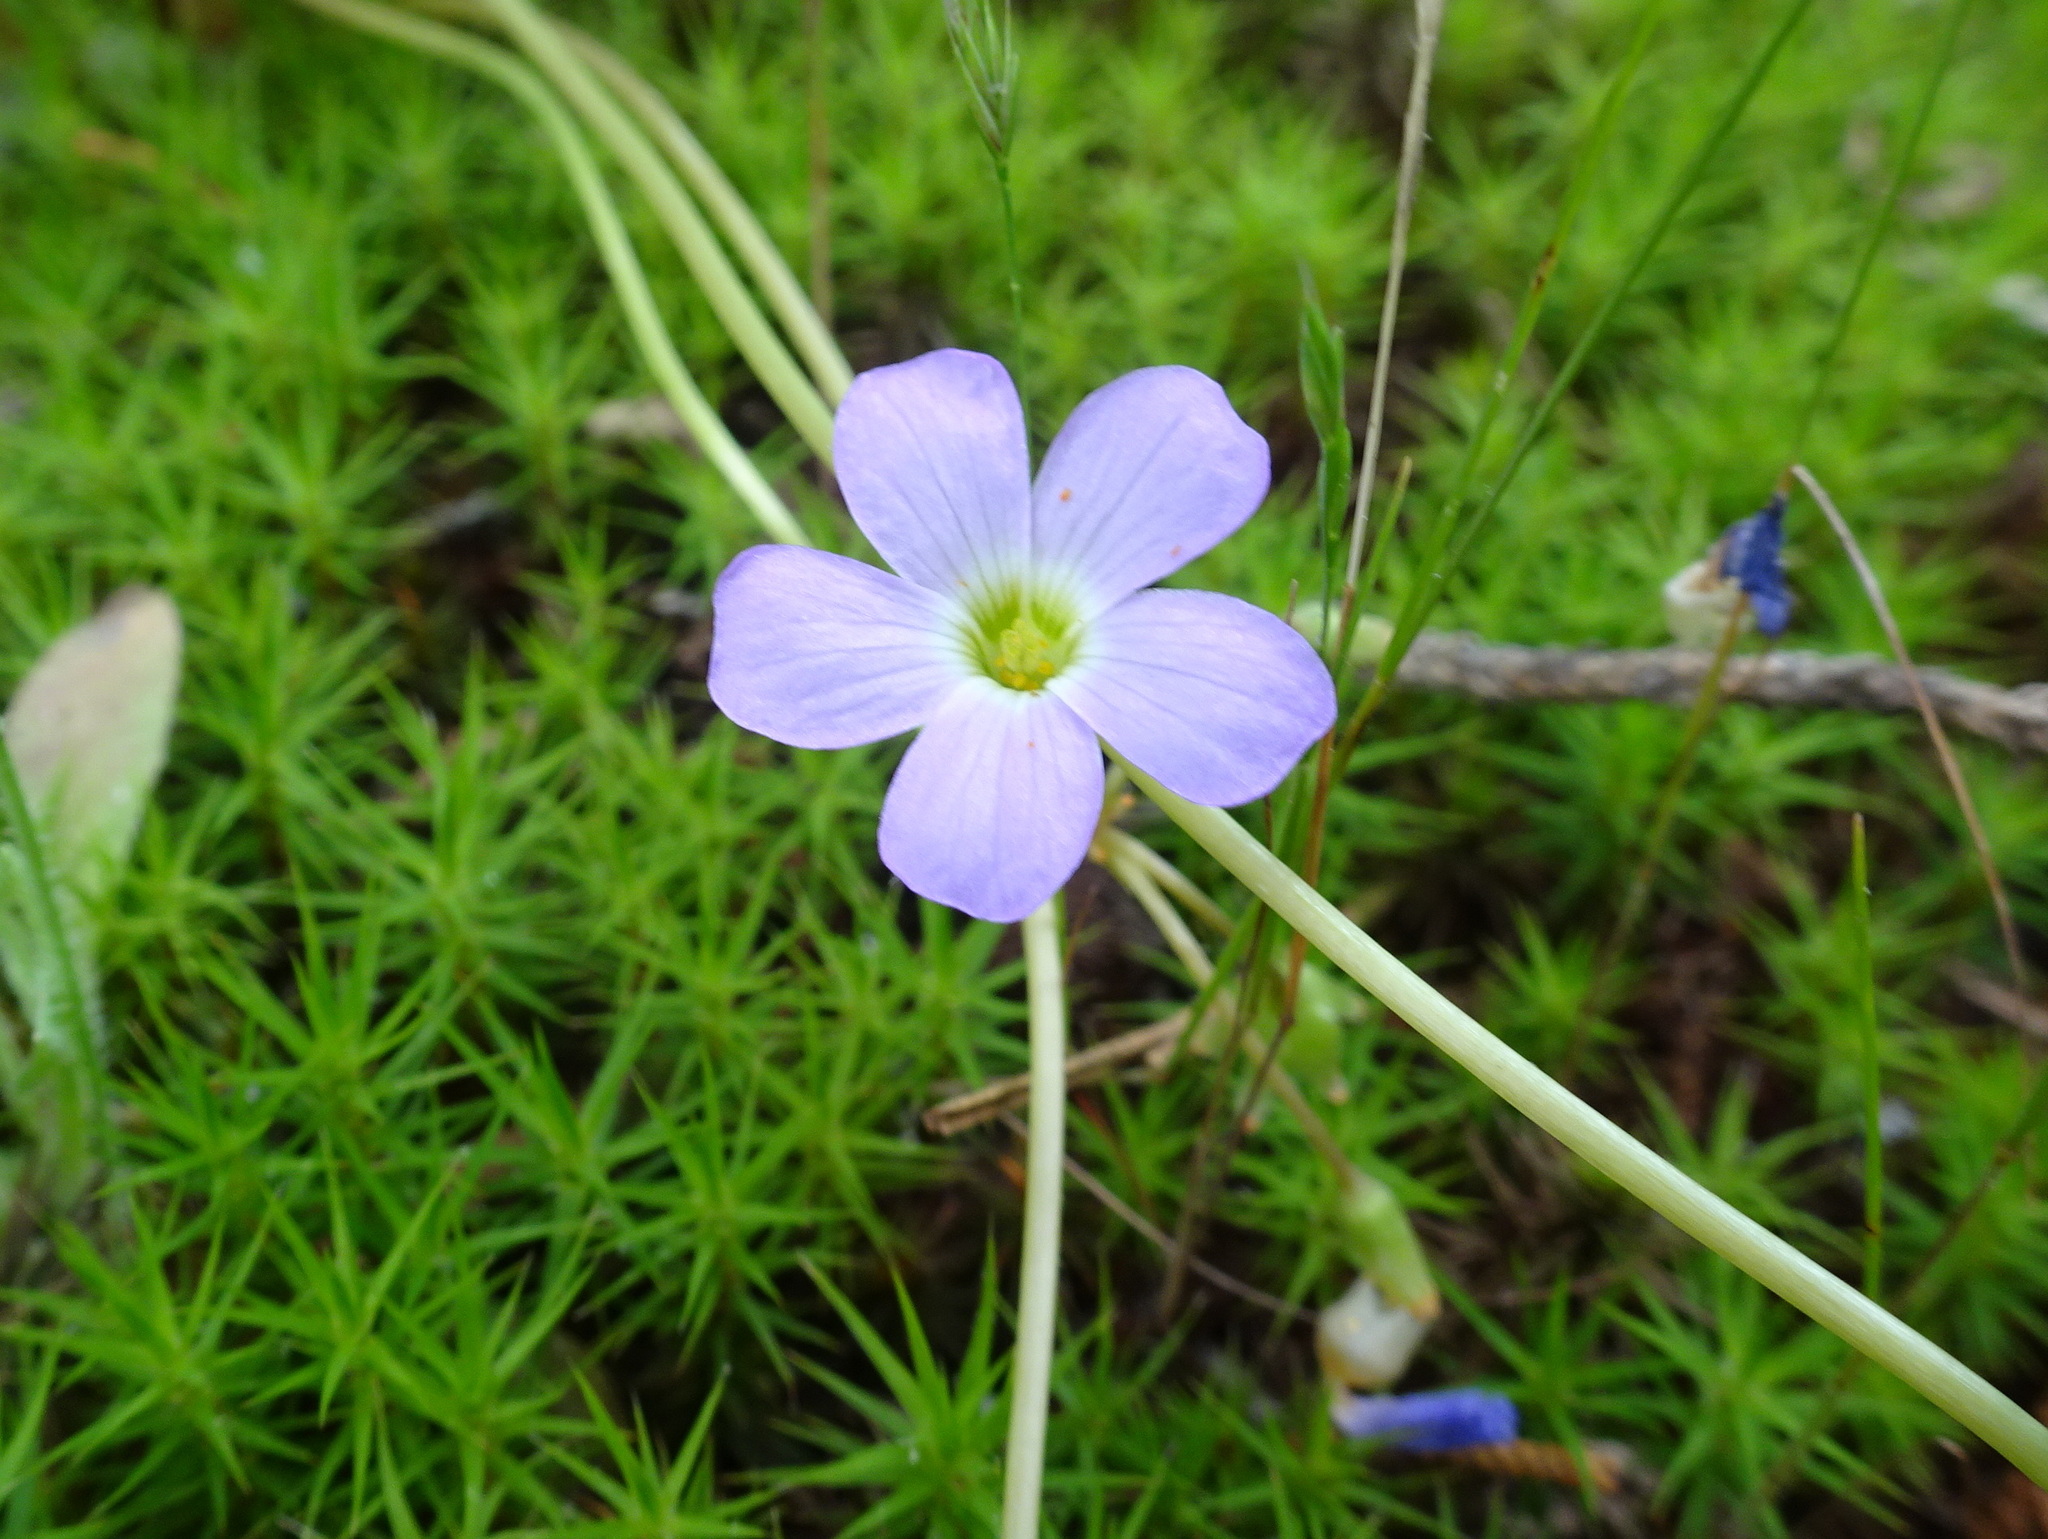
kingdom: Plantae
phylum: Tracheophyta
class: Magnoliopsida
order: Oxalidales
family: Oxalidaceae
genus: Oxalis
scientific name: Oxalis violacea
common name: Violet wood-sorrel
